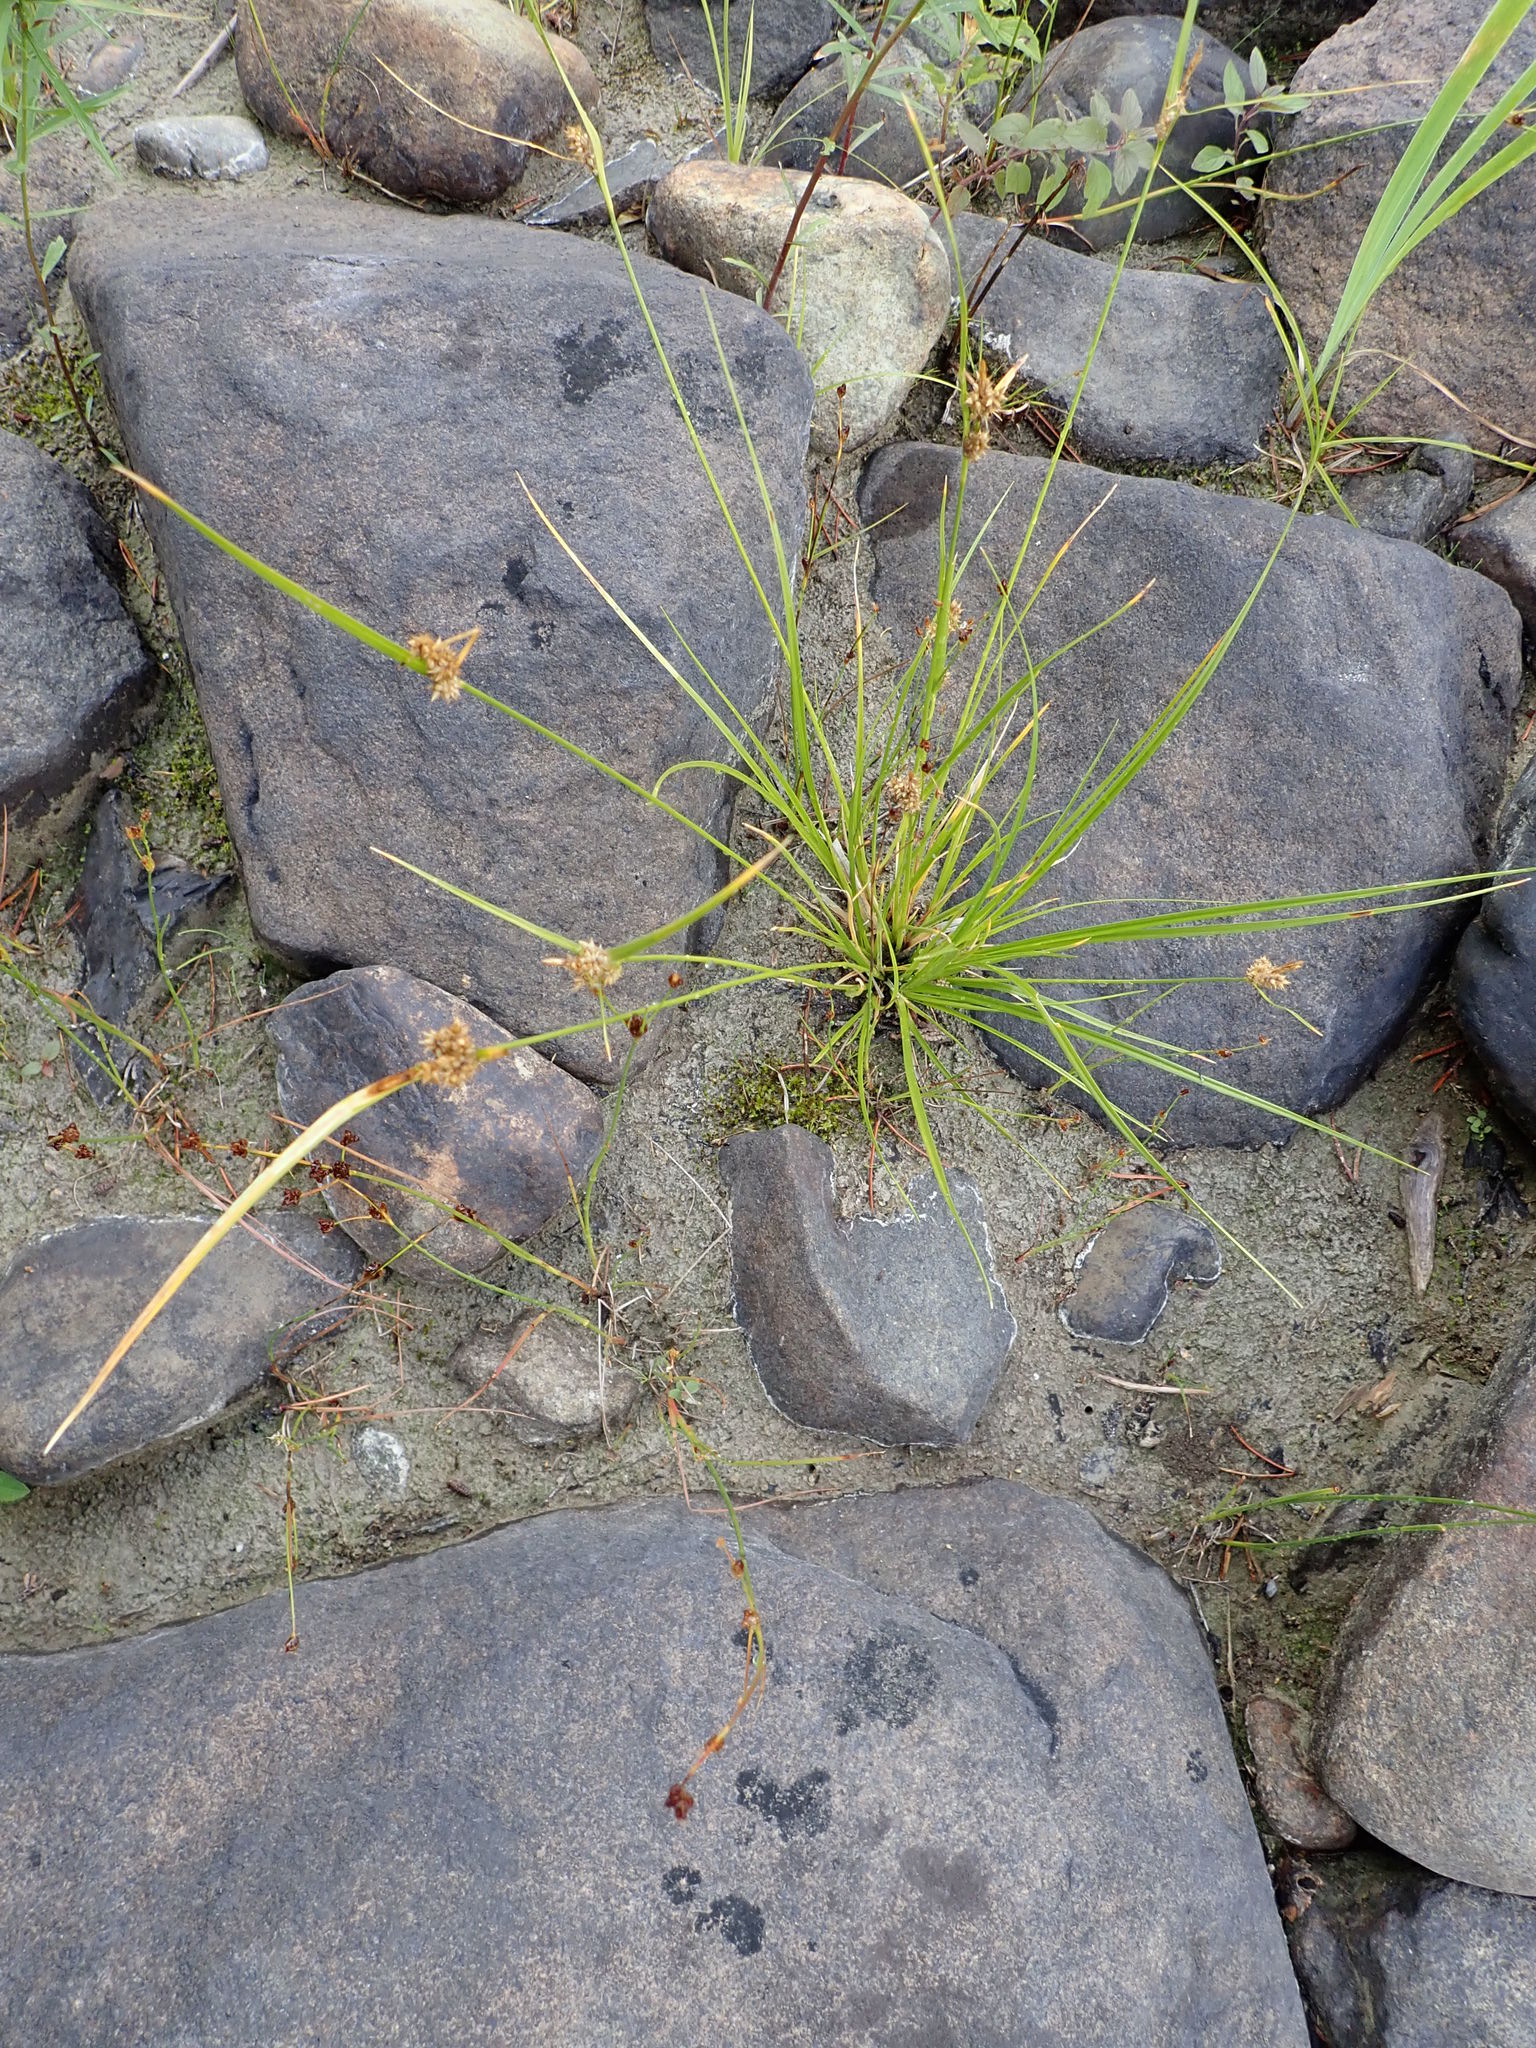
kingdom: Plantae
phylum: Tracheophyta
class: Liliopsida
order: Poales
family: Cyperaceae
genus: Carex
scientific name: Carex cryptolepis
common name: Northeastern sedge
